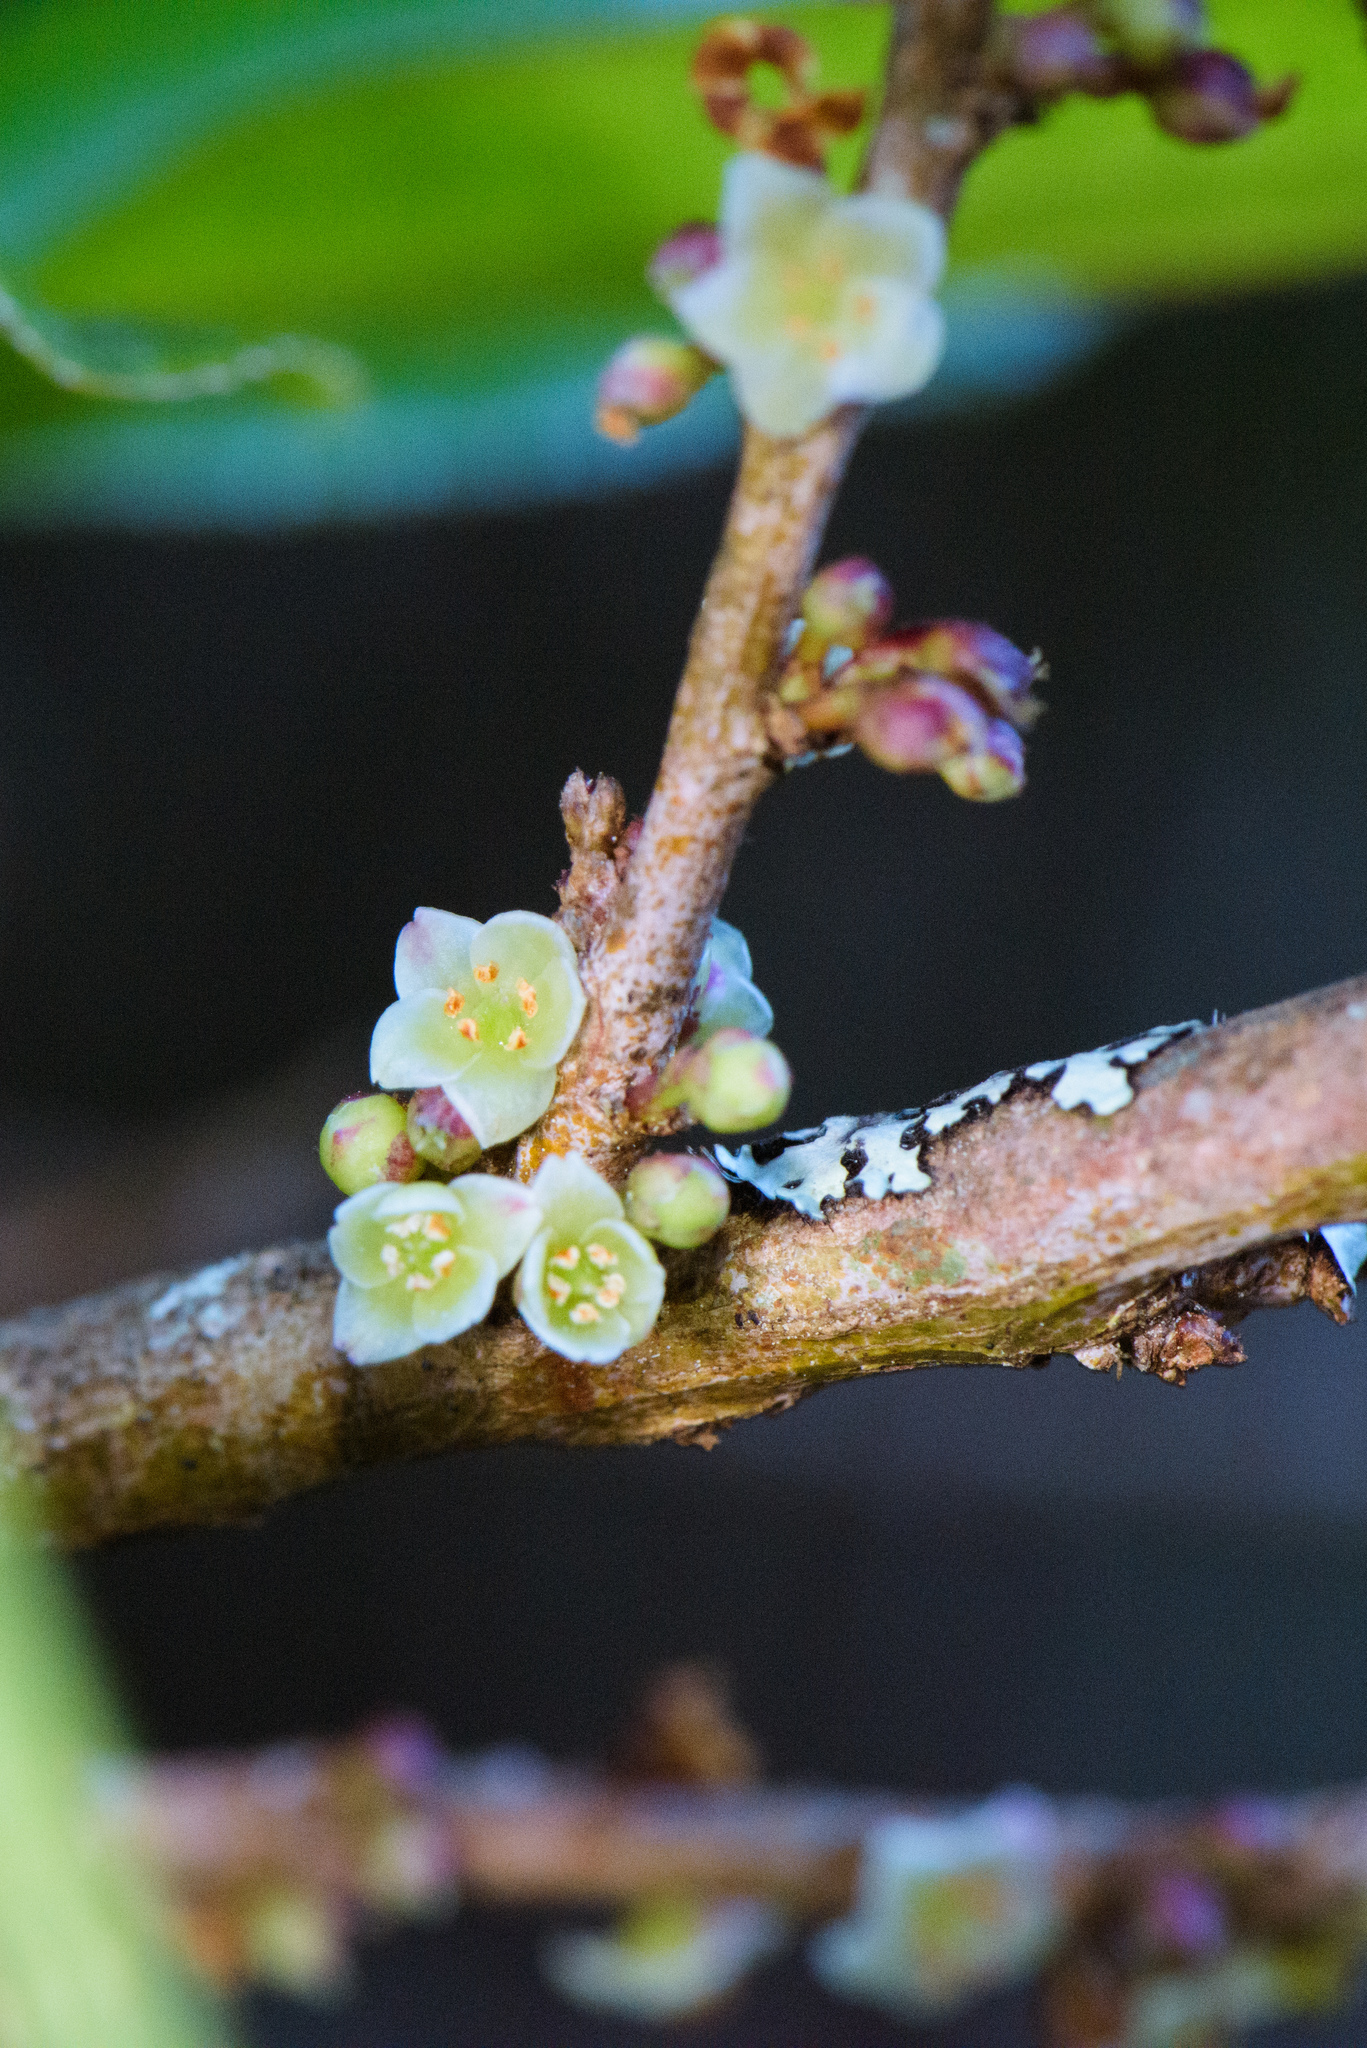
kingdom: Plantae
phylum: Tracheophyta
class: Magnoliopsida
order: Ericales
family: Pentaphylacaceae
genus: Eurya
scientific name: Eurya glaberrima
